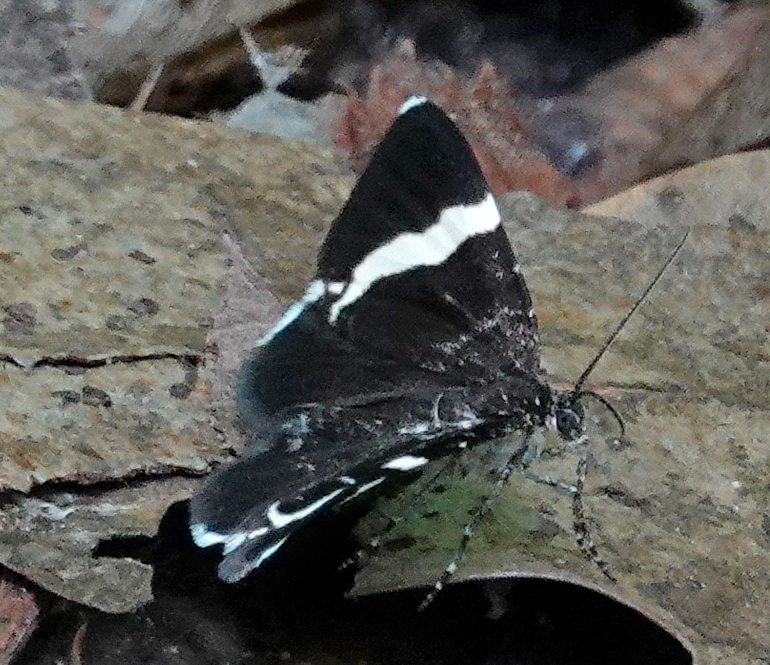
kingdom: Animalia
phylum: Arthropoda
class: Insecta
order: Lepidoptera
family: Geometridae
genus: Trichodezia
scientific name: Trichodezia albovittata
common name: White striped black
